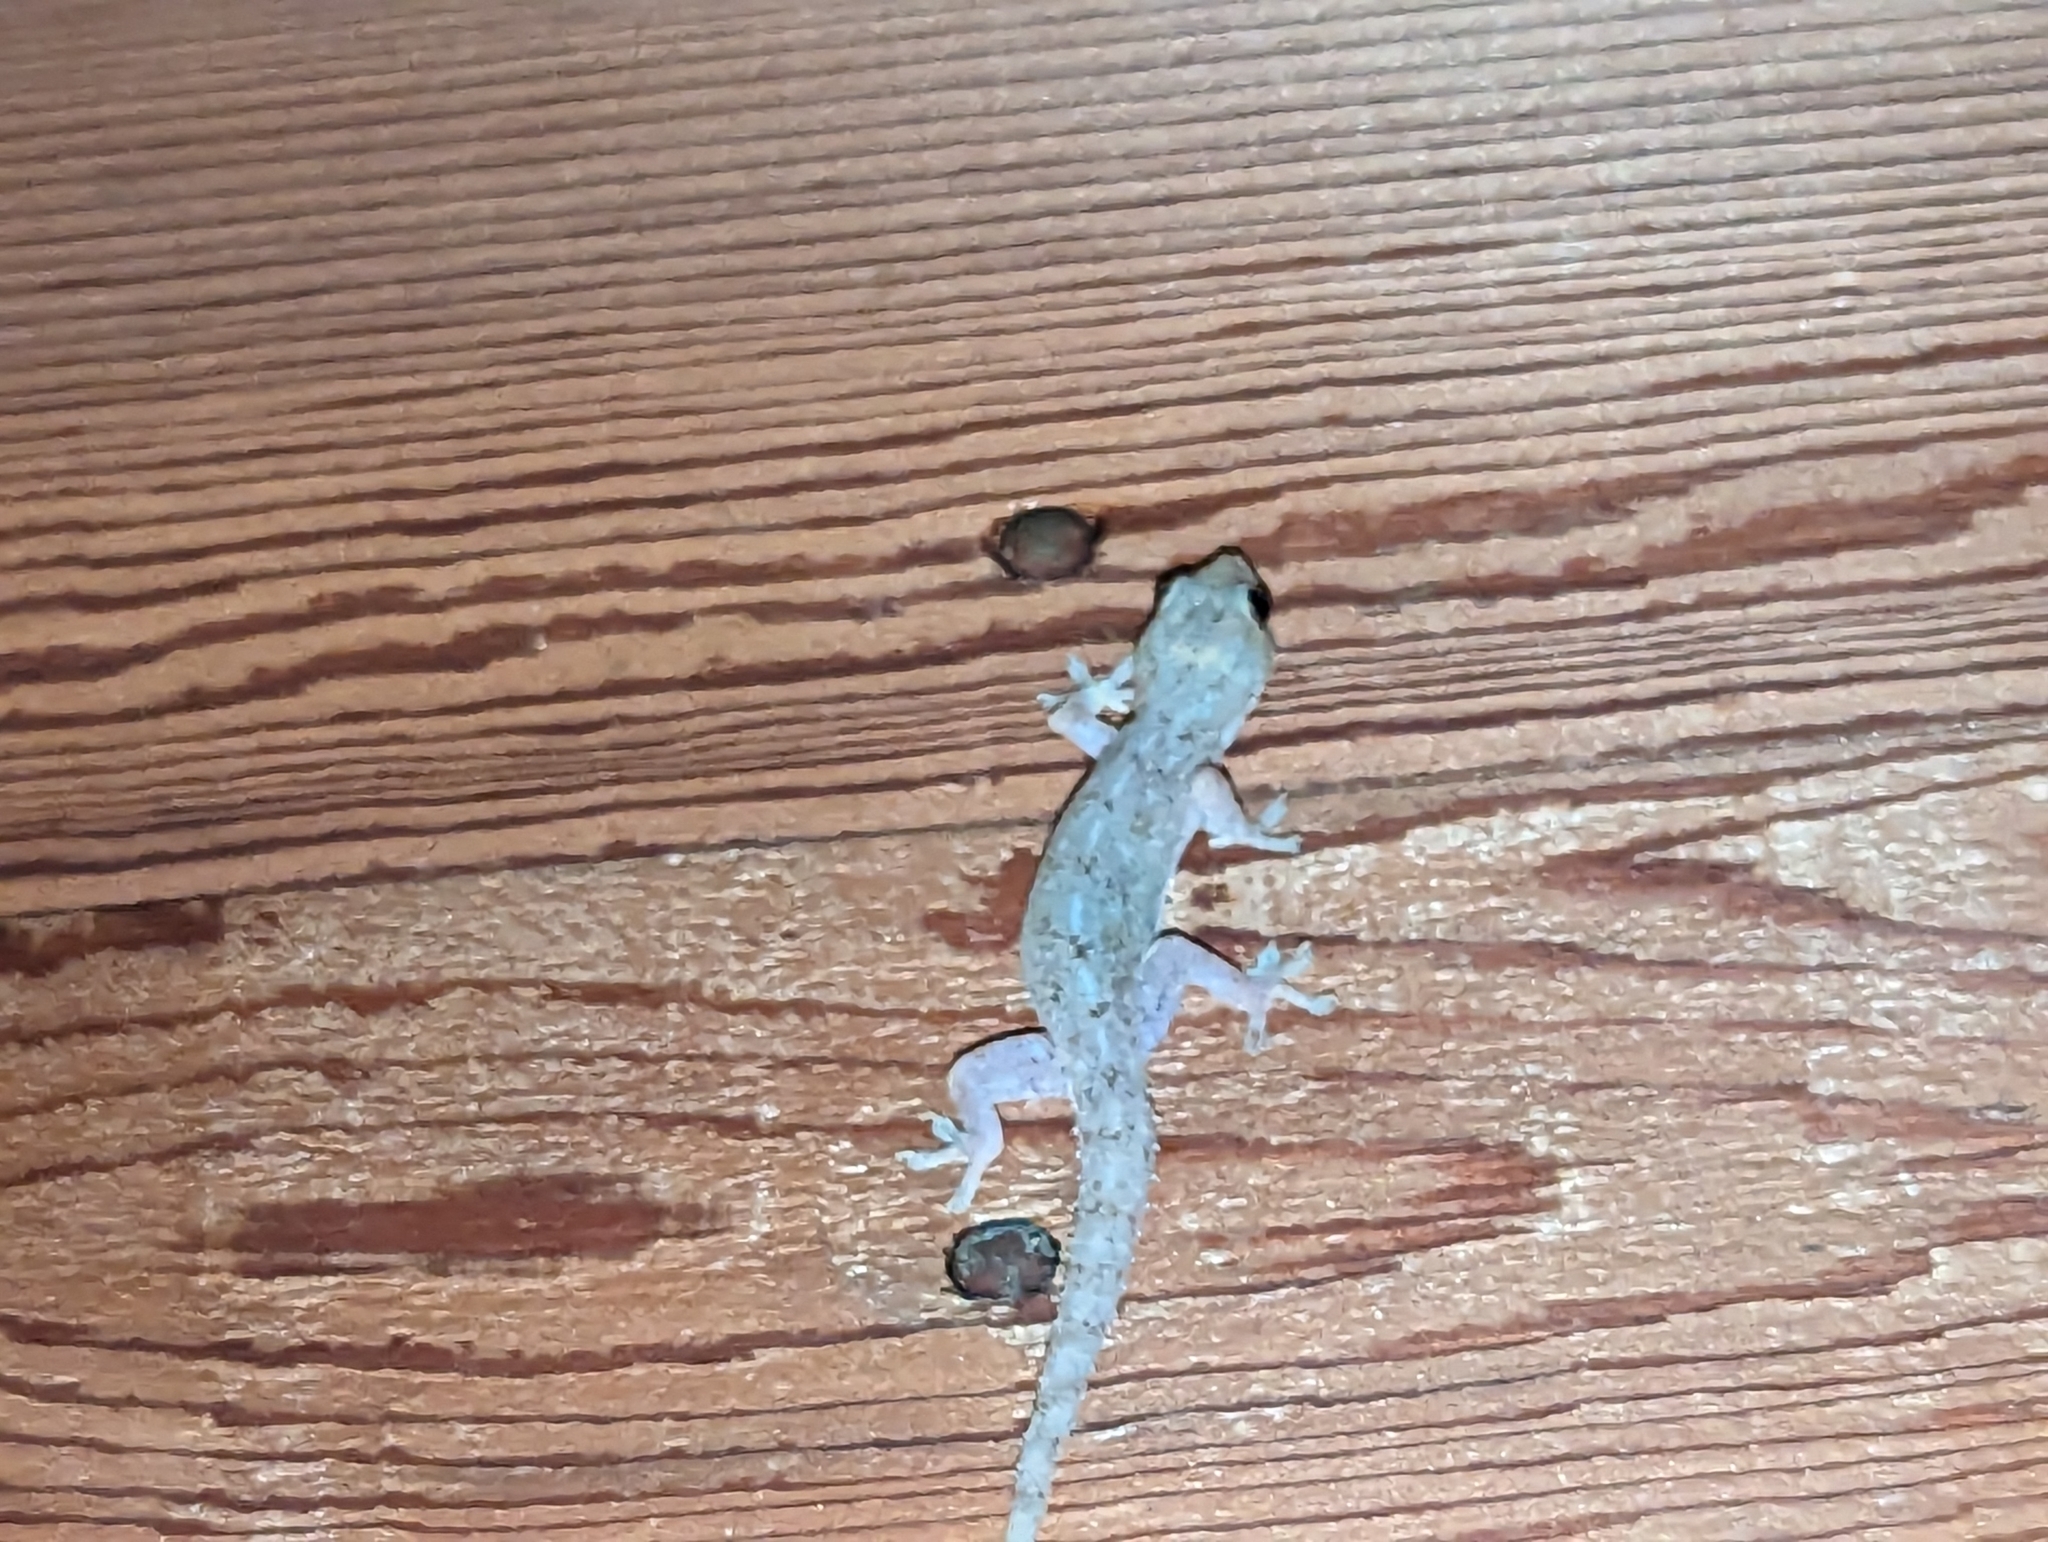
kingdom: Animalia
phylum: Chordata
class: Squamata
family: Gekkonidae
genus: Hemidactylus
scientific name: Hemidactylus frenatus
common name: Common house gecko
